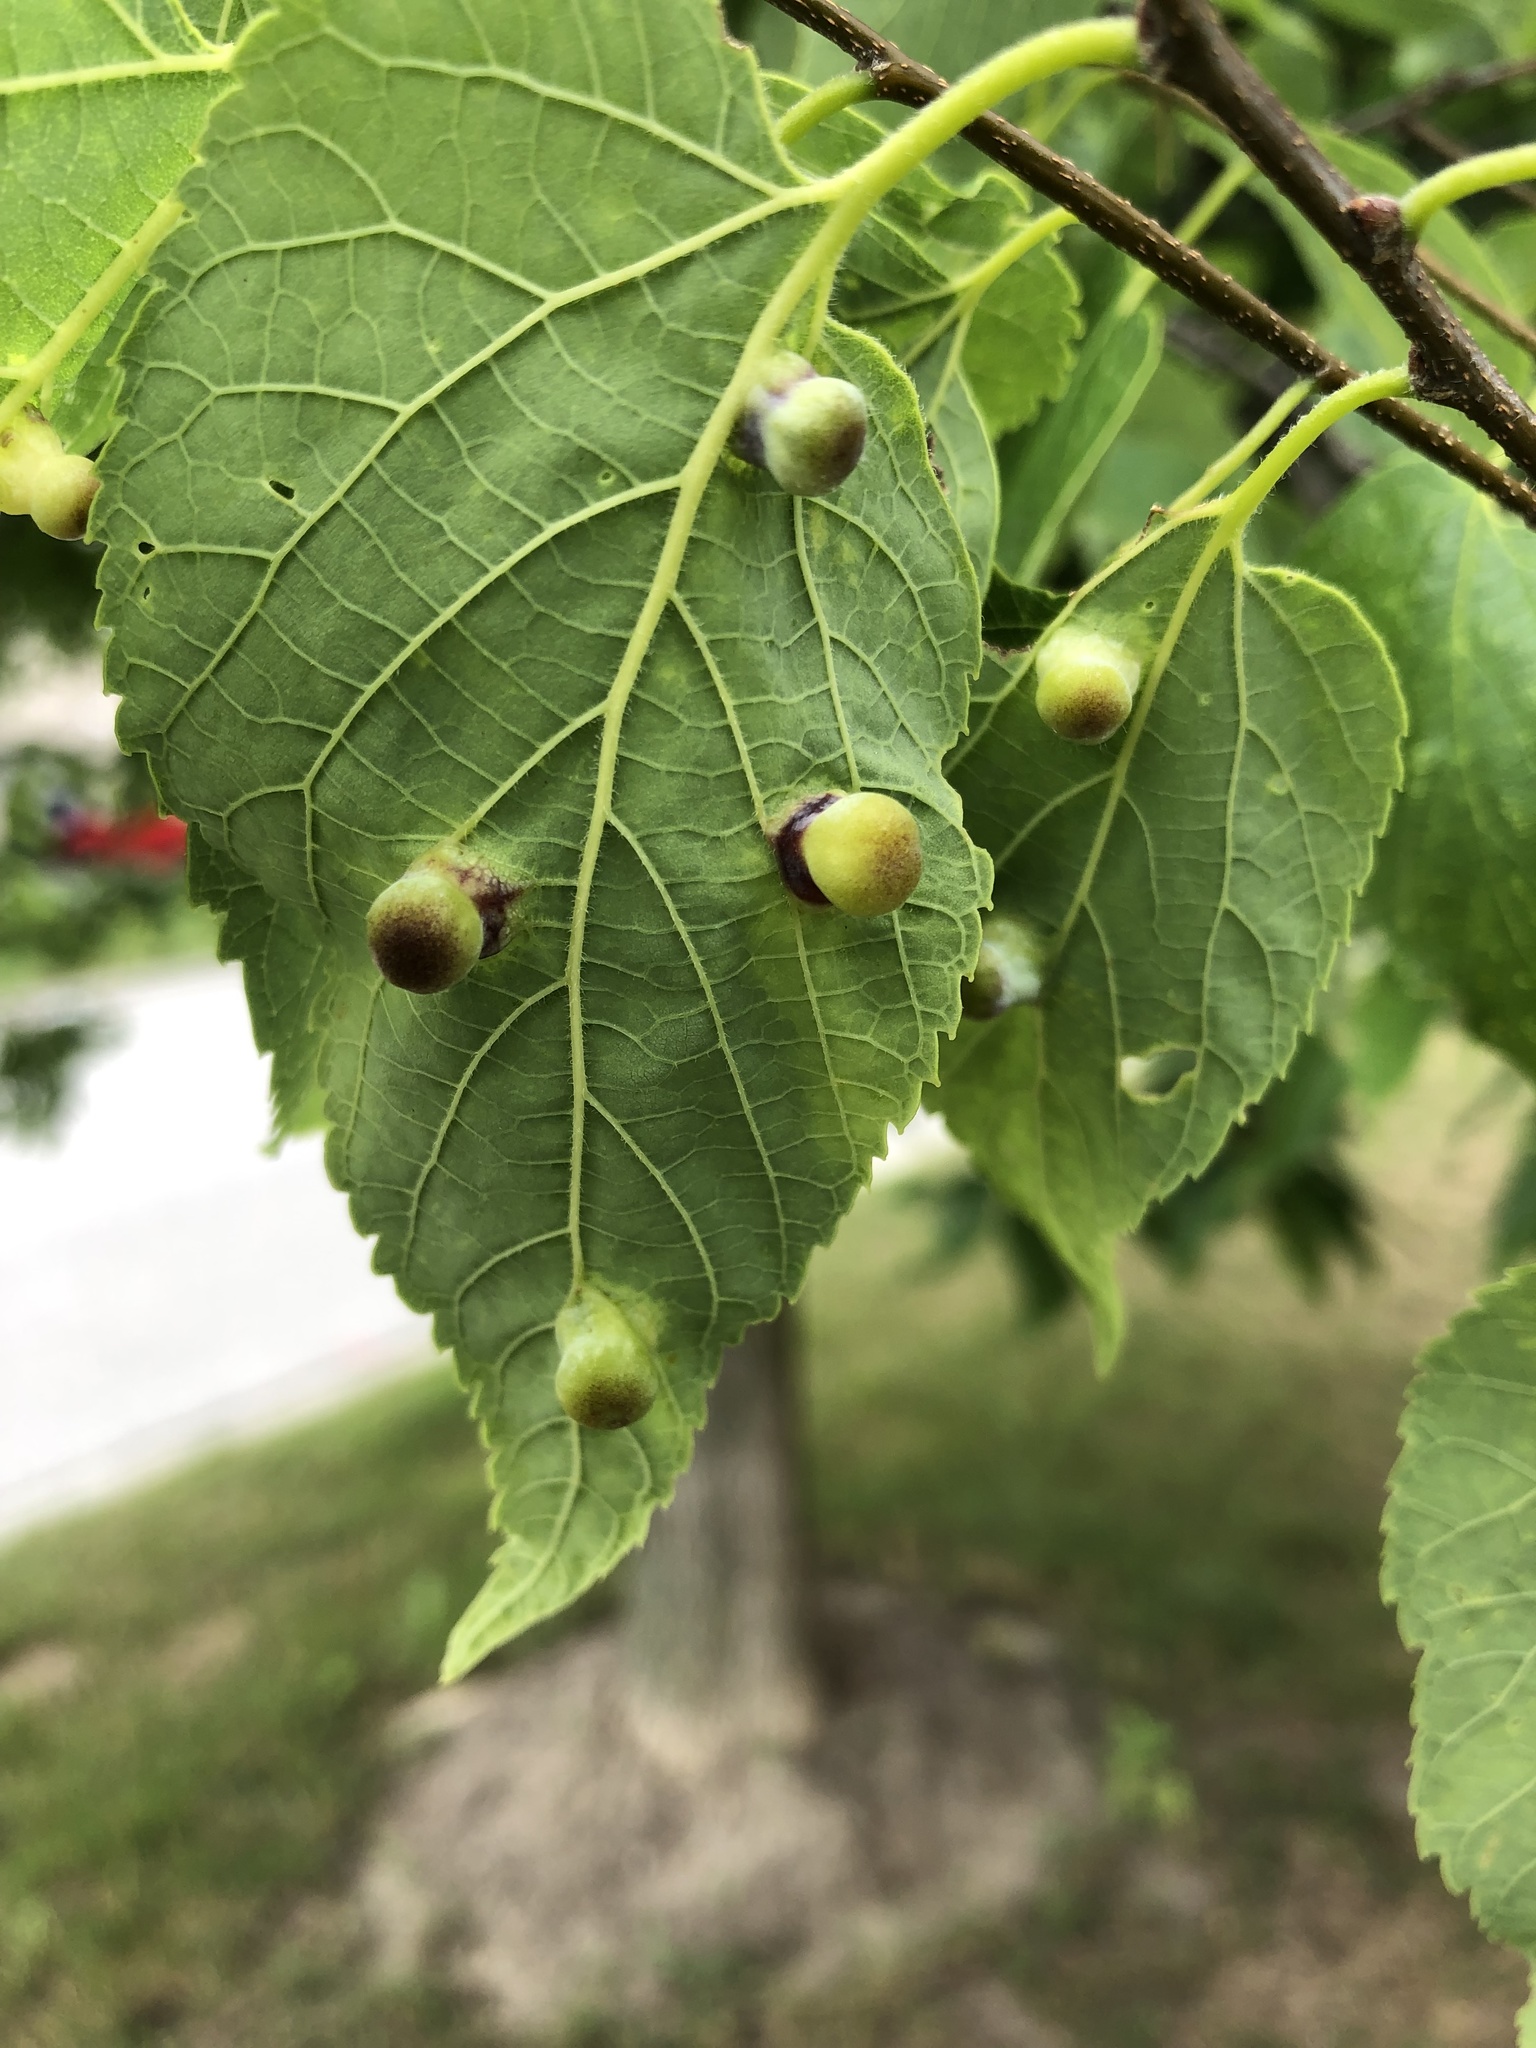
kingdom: Animalia
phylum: Arthropoda
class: Insecta
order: Hemiptera
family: Aphalaridae
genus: Pachypsylla
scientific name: Pachypsylla celtidismamma
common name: Hackberry nipplegall psyllid
